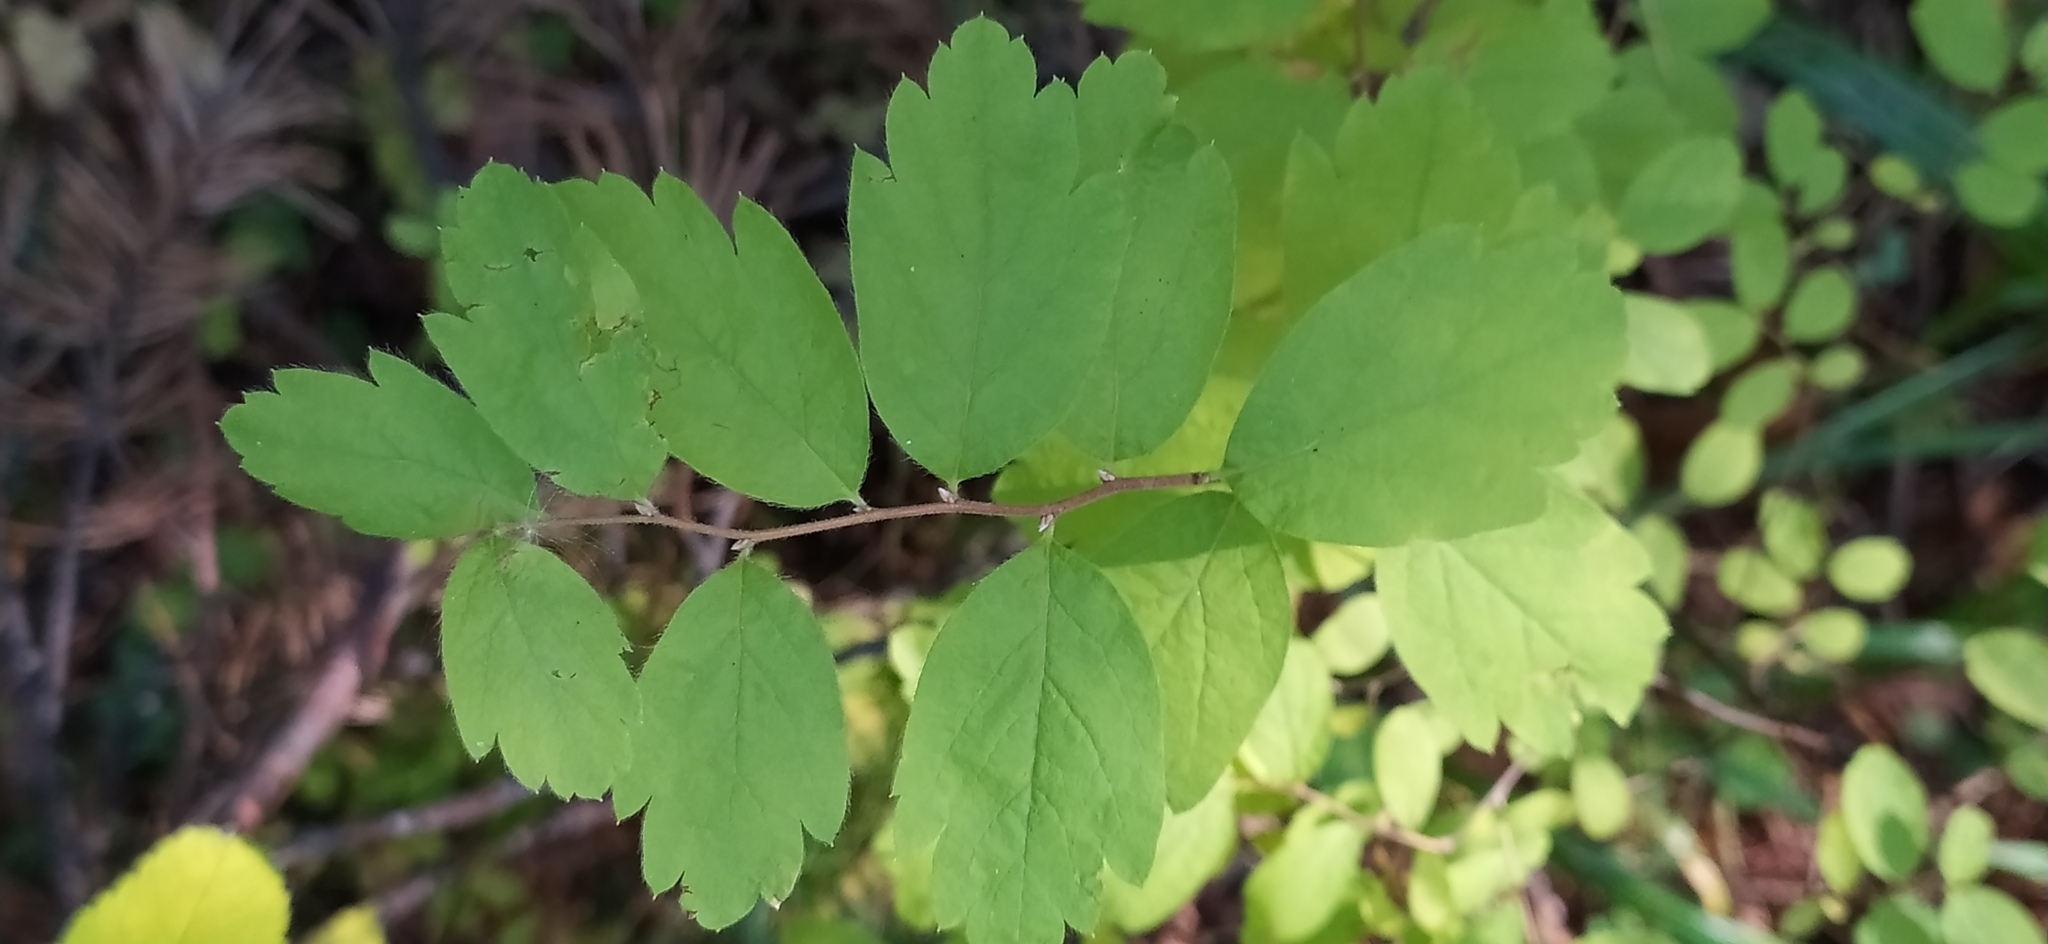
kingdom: Plantae
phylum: Tracheophyta
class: Magnoliopsida
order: Rosales
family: Rosaceae
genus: Spiraea
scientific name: Spiraea media
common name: Russian spiraea
